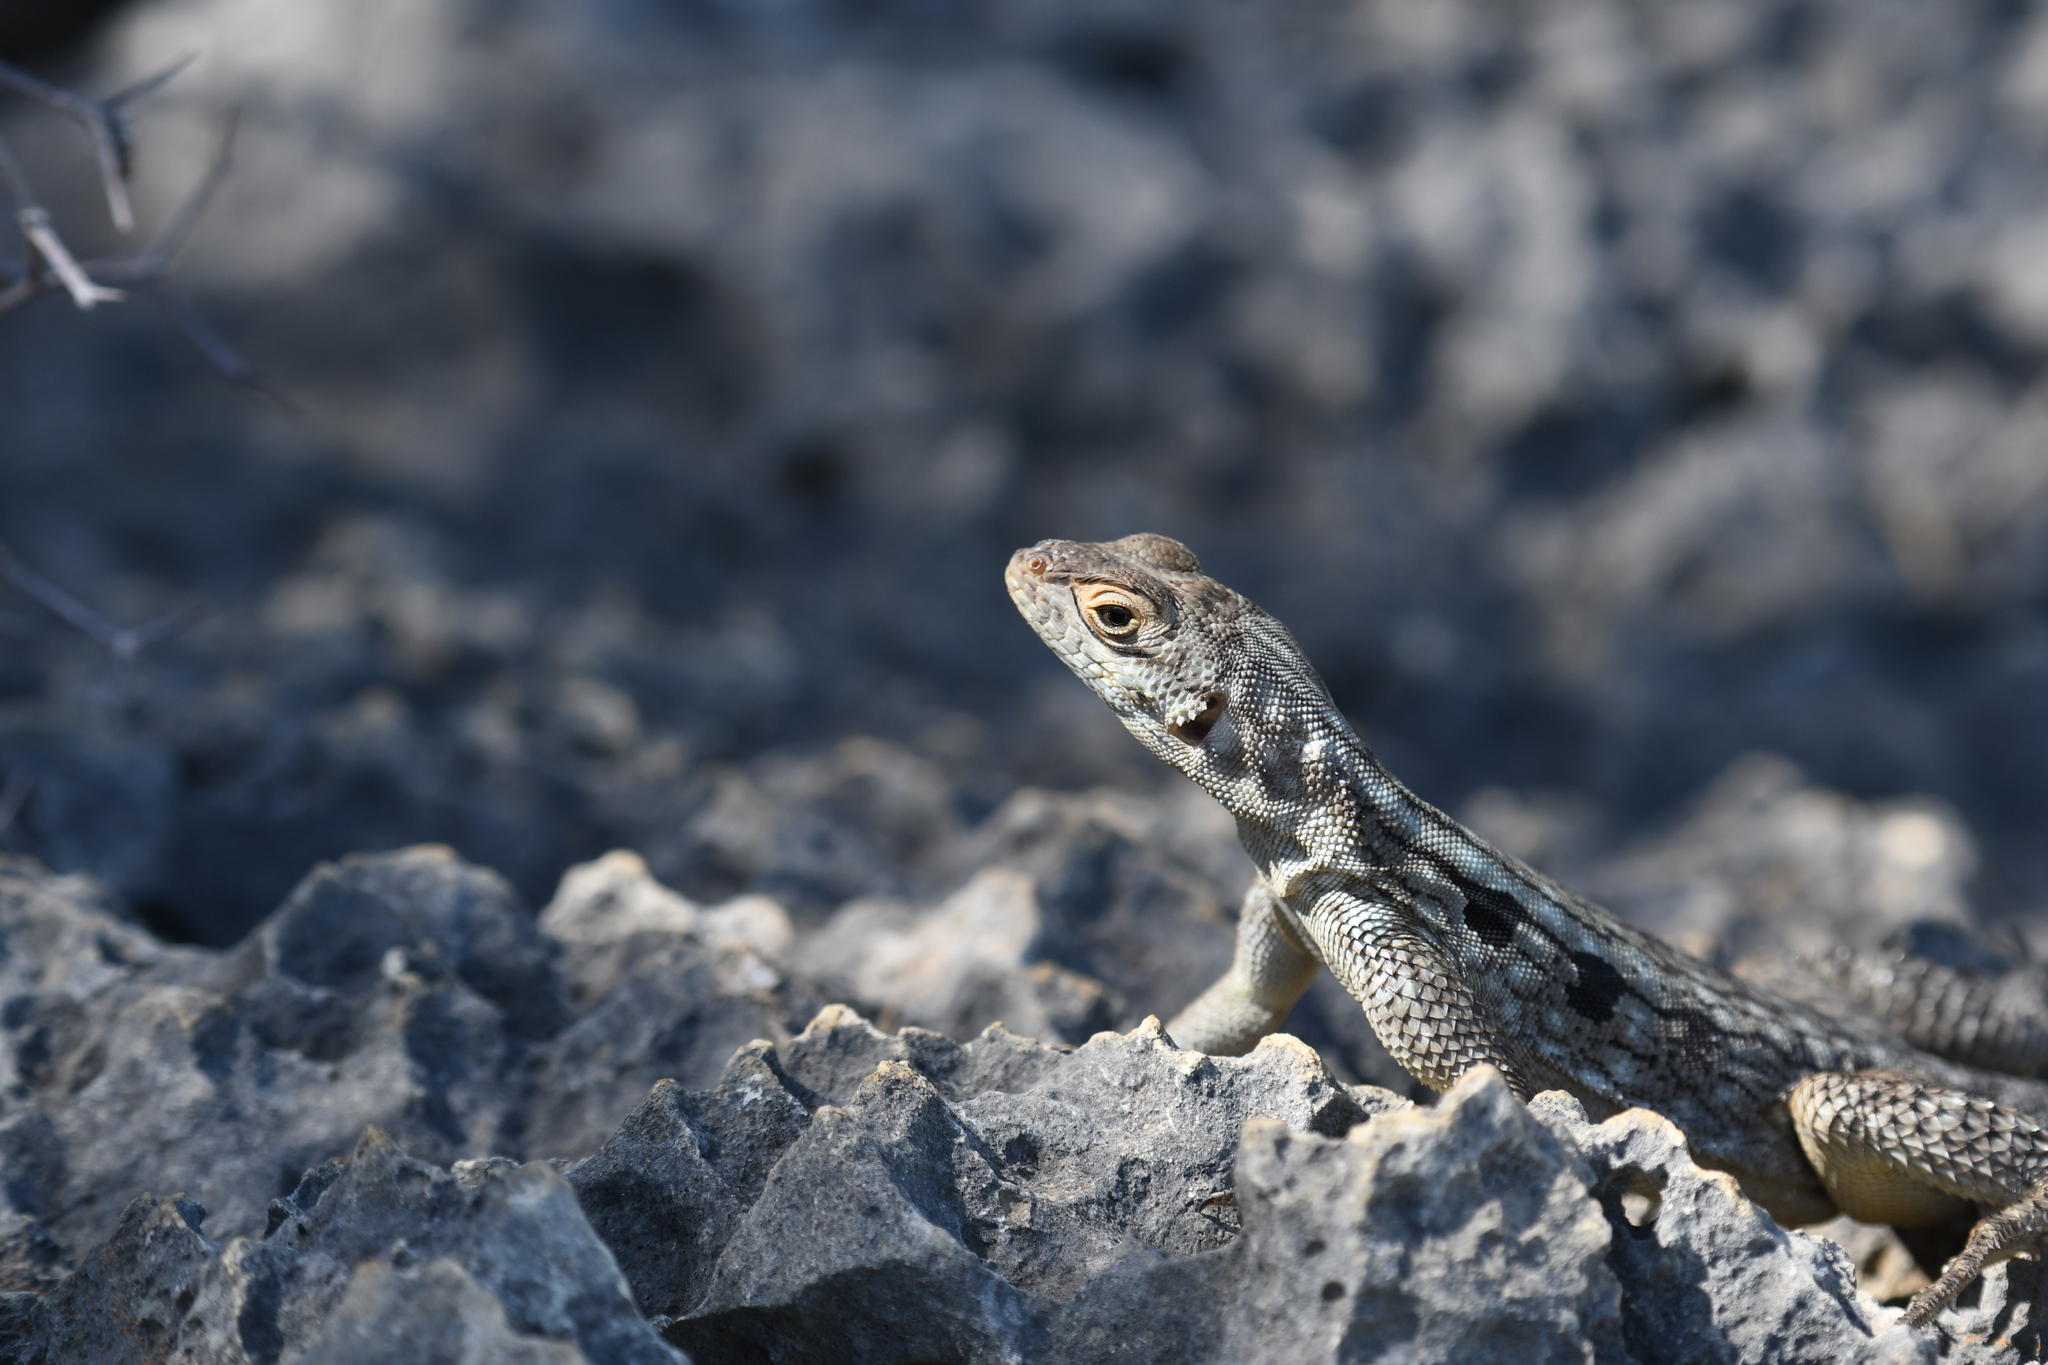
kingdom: Animalia
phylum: Chordata
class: Squamata
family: Opluridae
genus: Oplurus
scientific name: Oplurus quadrimaculatus
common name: Duméril's madagascar swift
